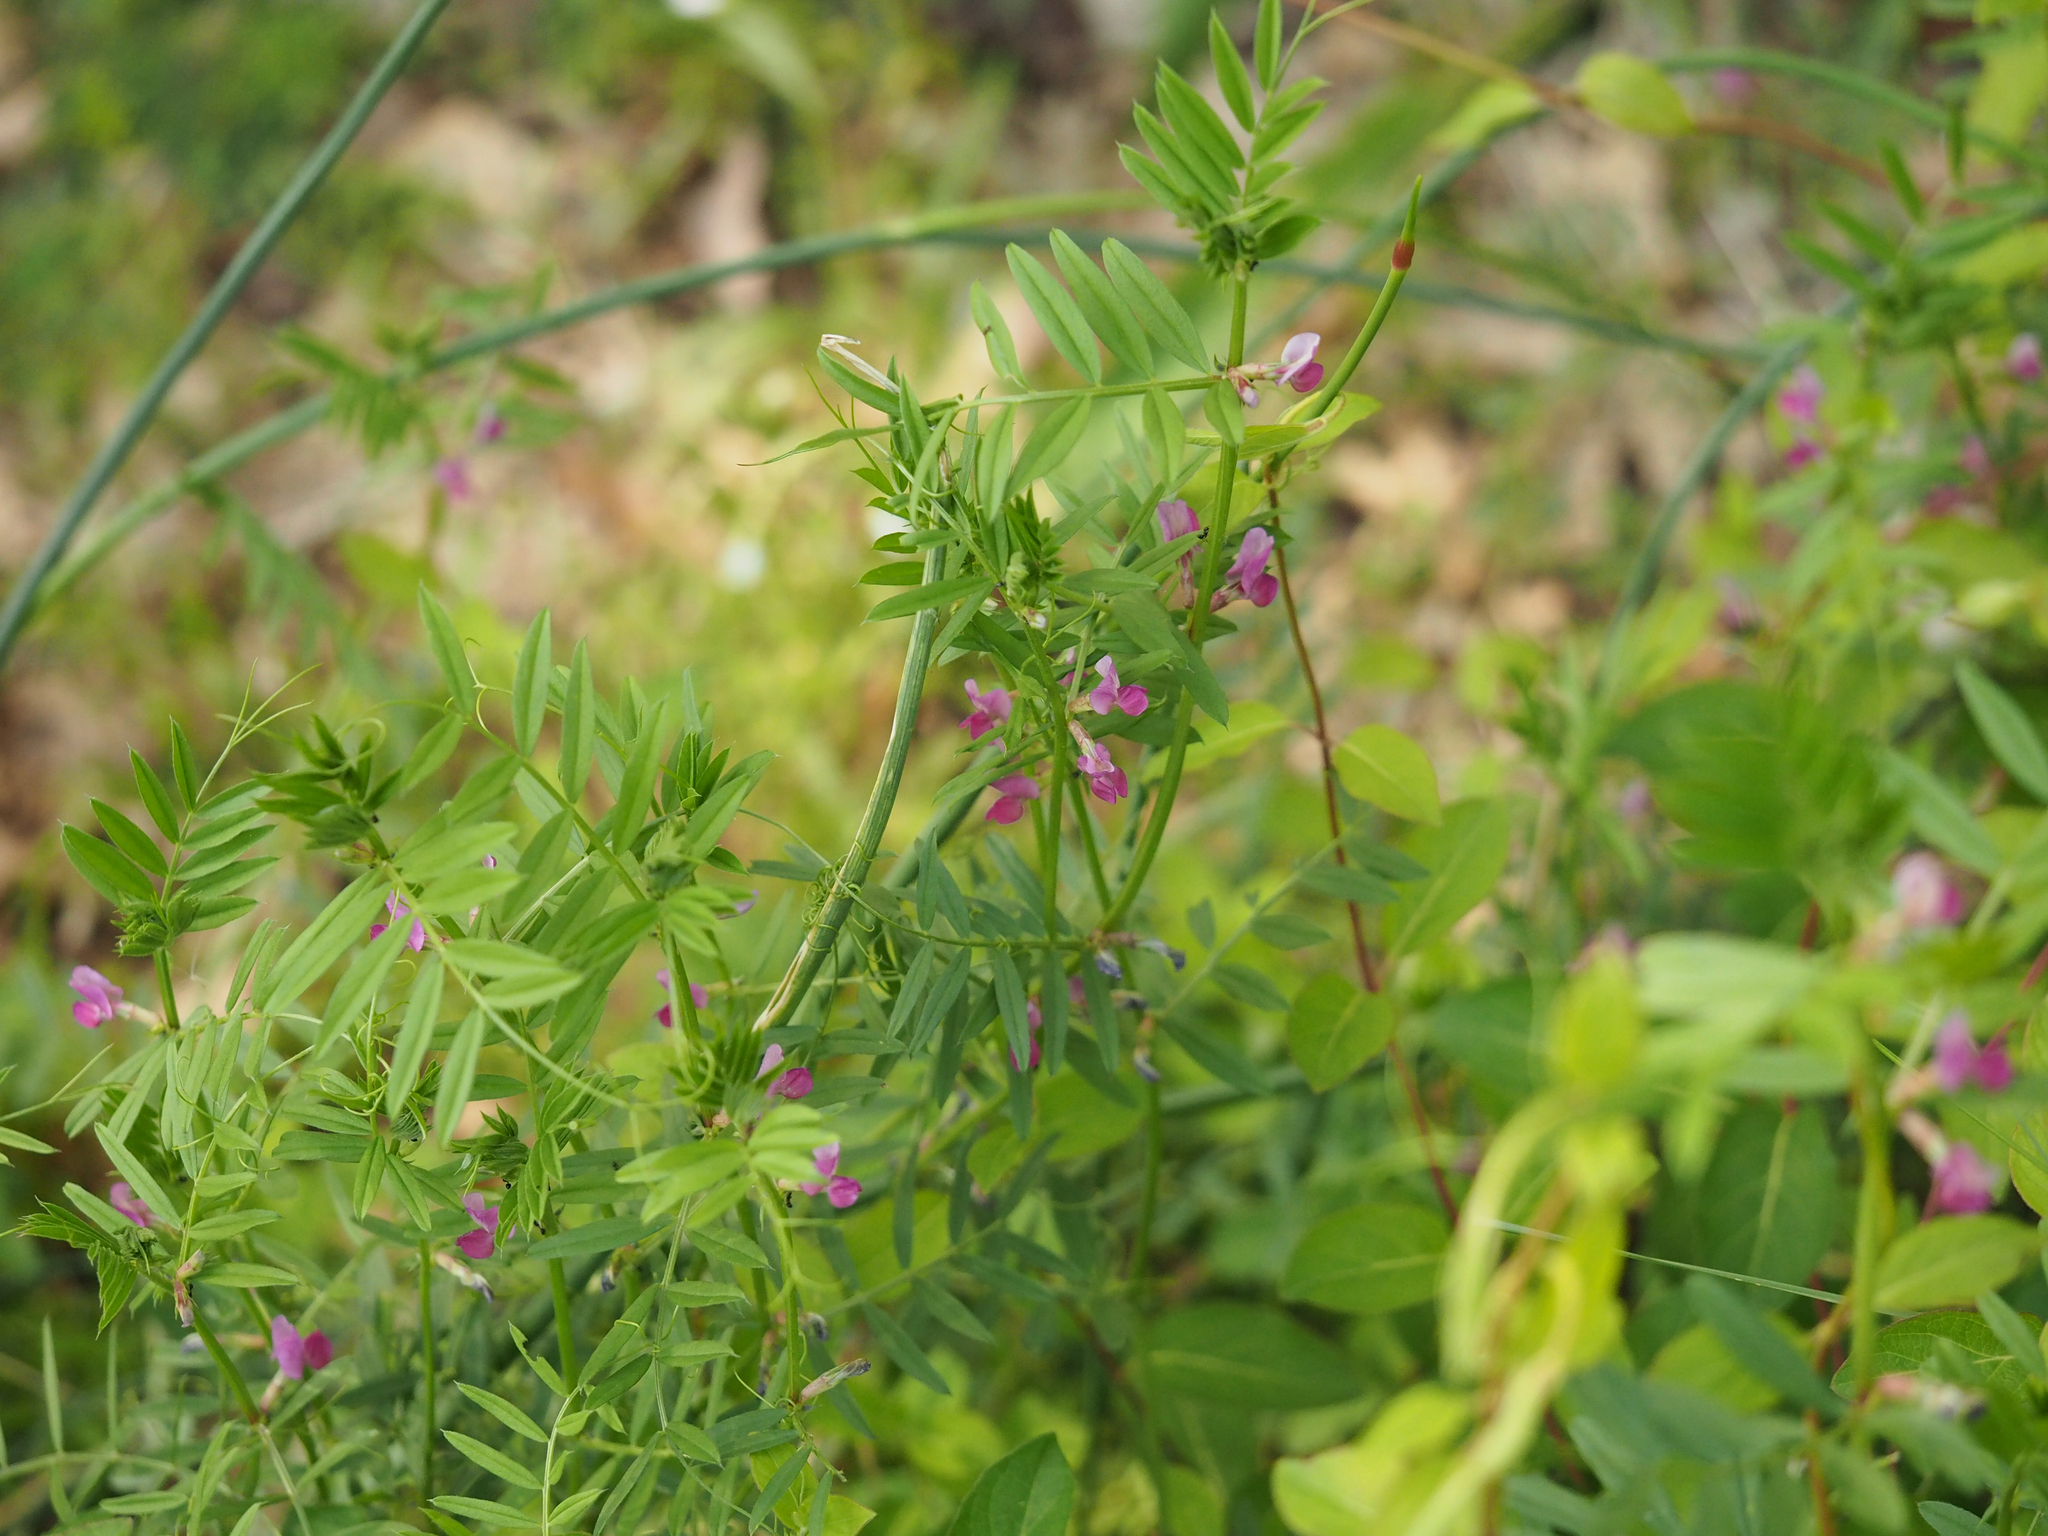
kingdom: Plantae
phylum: Tracheophyta
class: Magnoliopsida
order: Fabales
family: Fabaceae
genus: Vicia
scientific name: Vicia sativa
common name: Garden vetch
